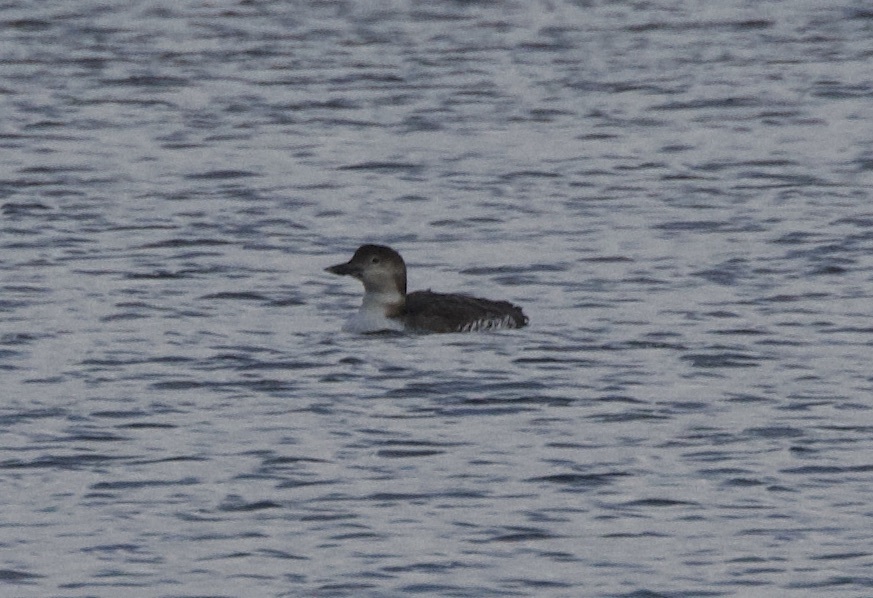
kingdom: Animalia
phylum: Chordata
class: Aves
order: Gaviiformes
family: Gaviidae
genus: Gavia
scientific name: Gavia immer
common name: Common loon
